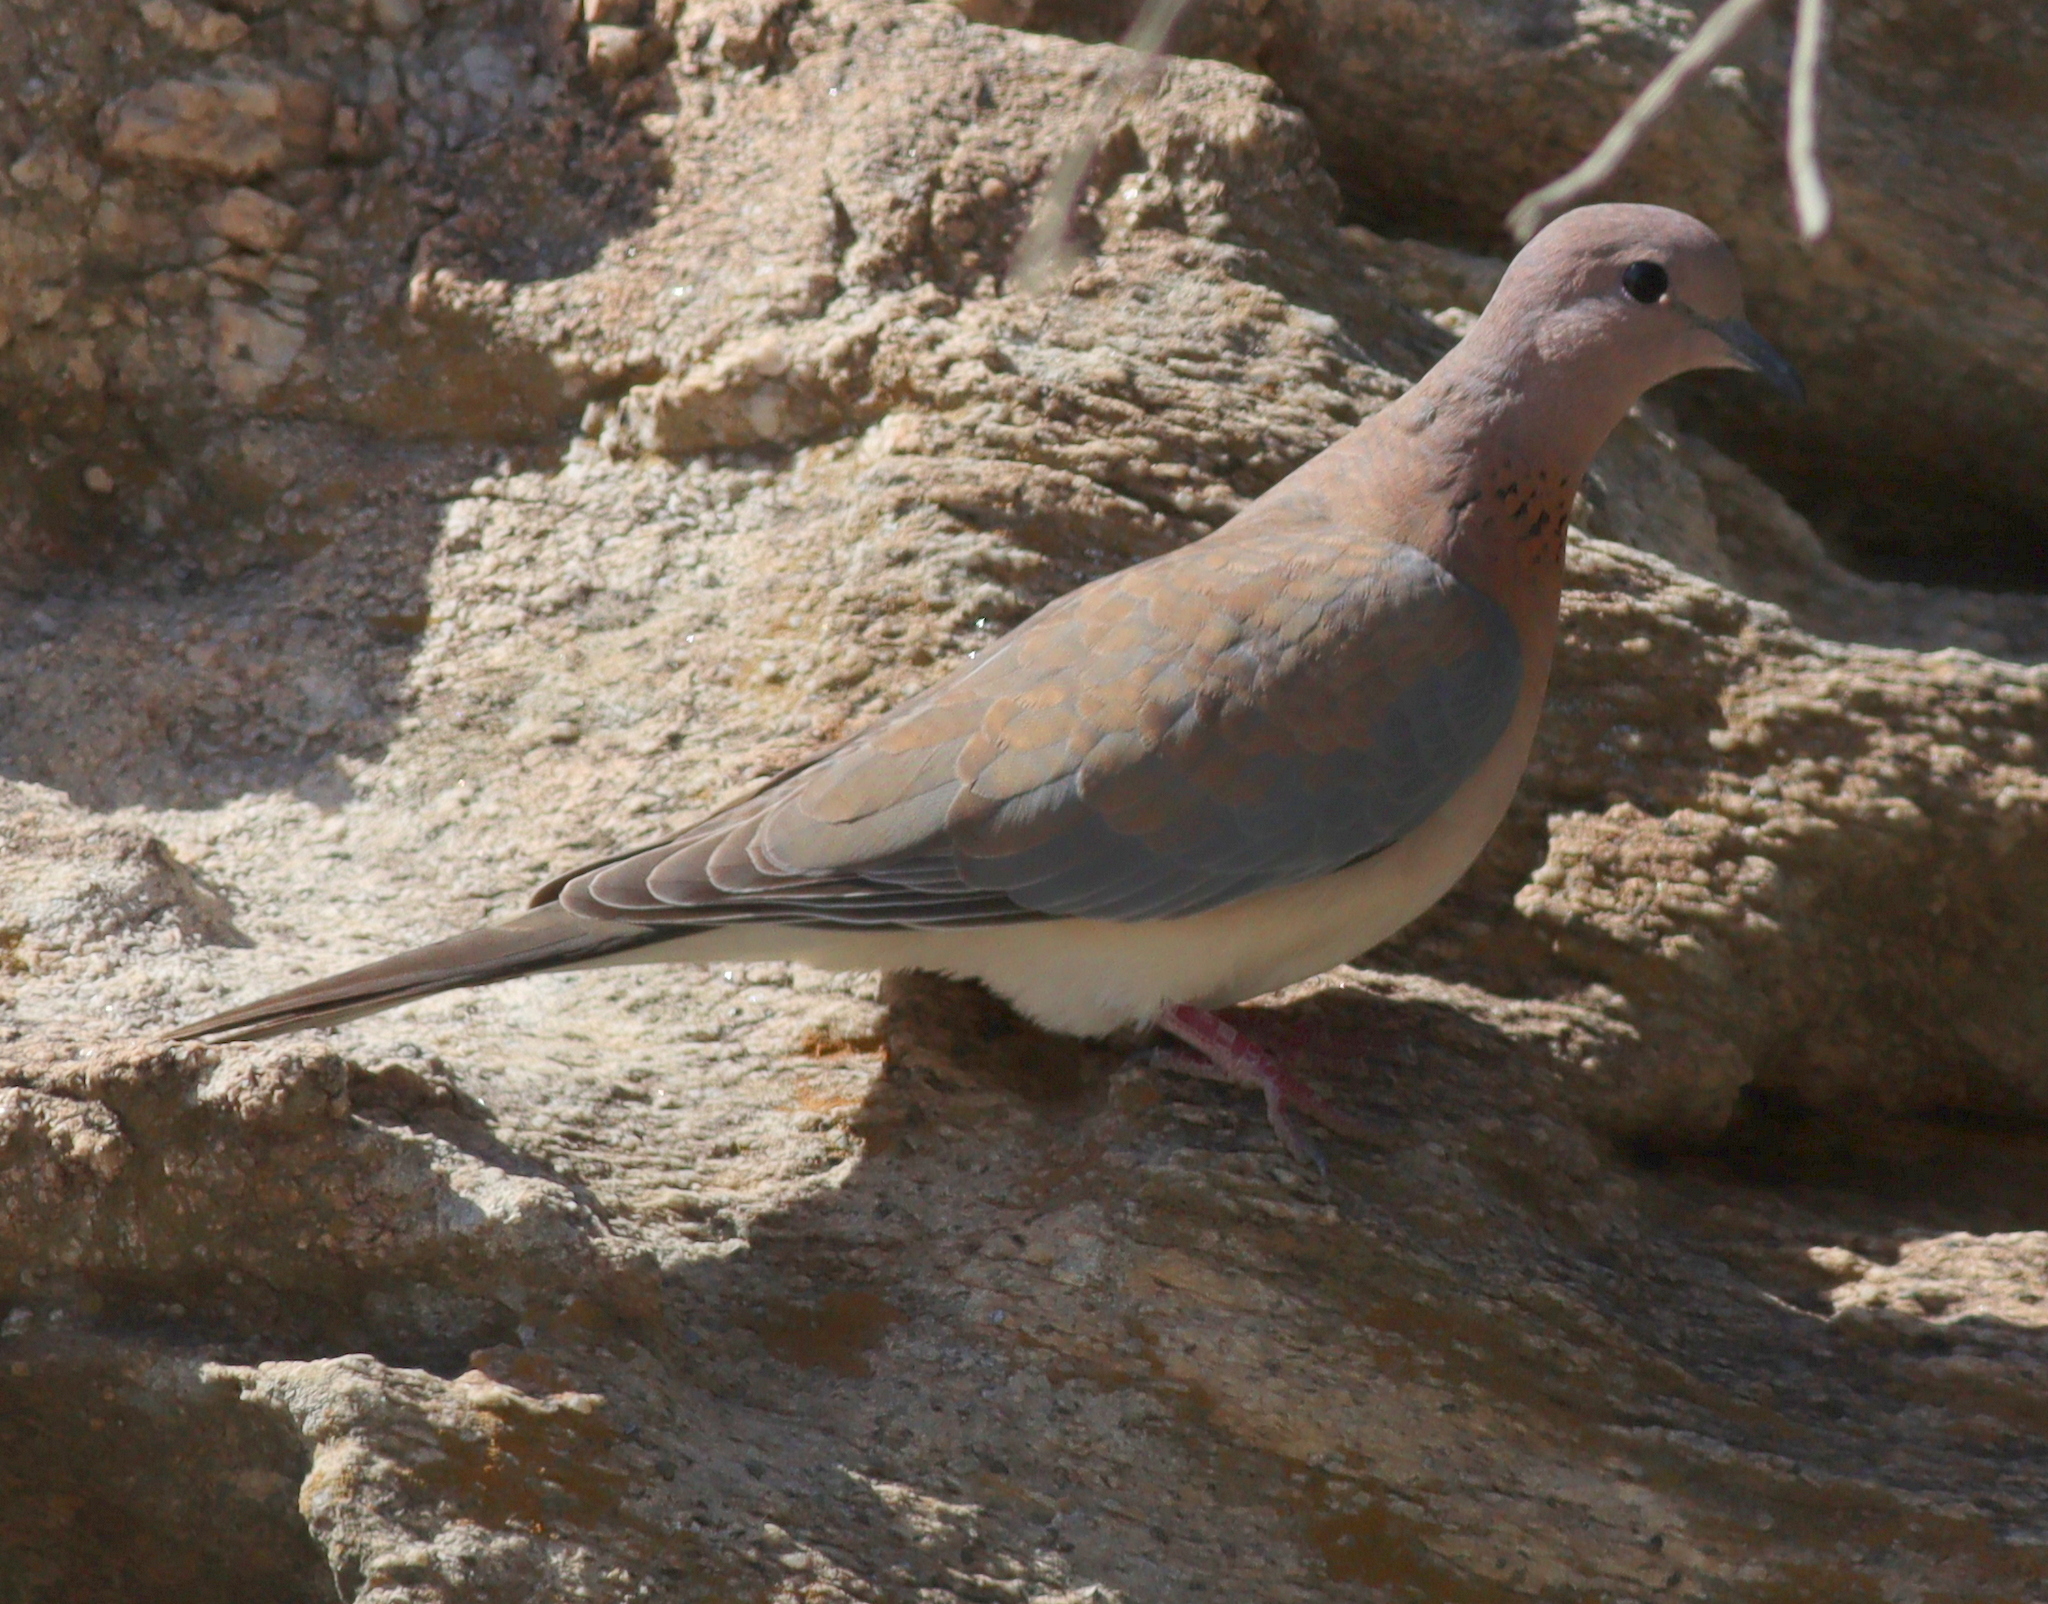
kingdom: Animalia
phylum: Chordata
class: Aves
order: Columbiformes
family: Columbidae
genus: Spilopelia
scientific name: Spilopelia senegalensis
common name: Laughing dove
